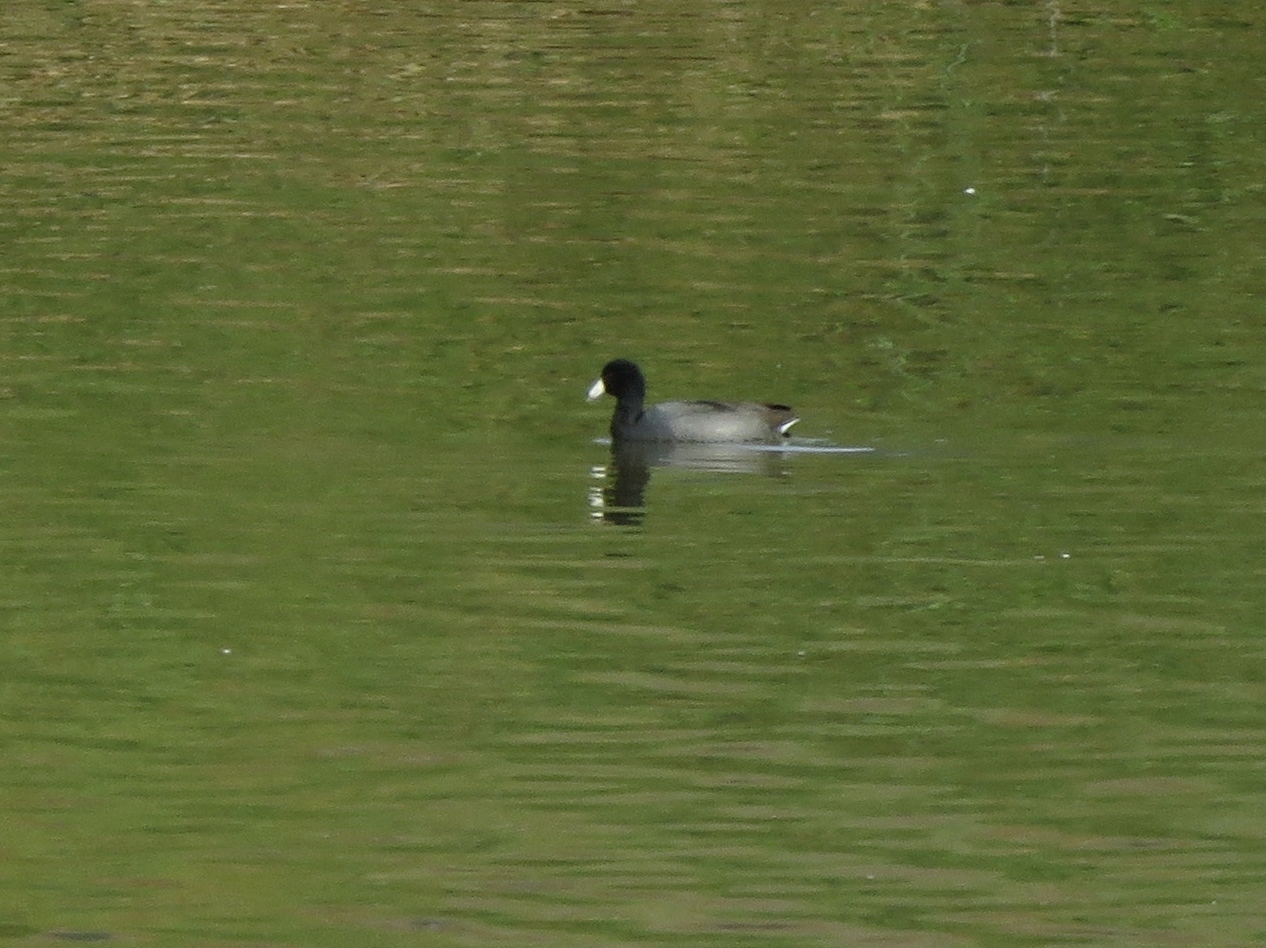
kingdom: Animalia
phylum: Chordata
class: Aves
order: Gruiformes
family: Rallidae
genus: Fulica
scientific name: Fulica americana
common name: American coot
